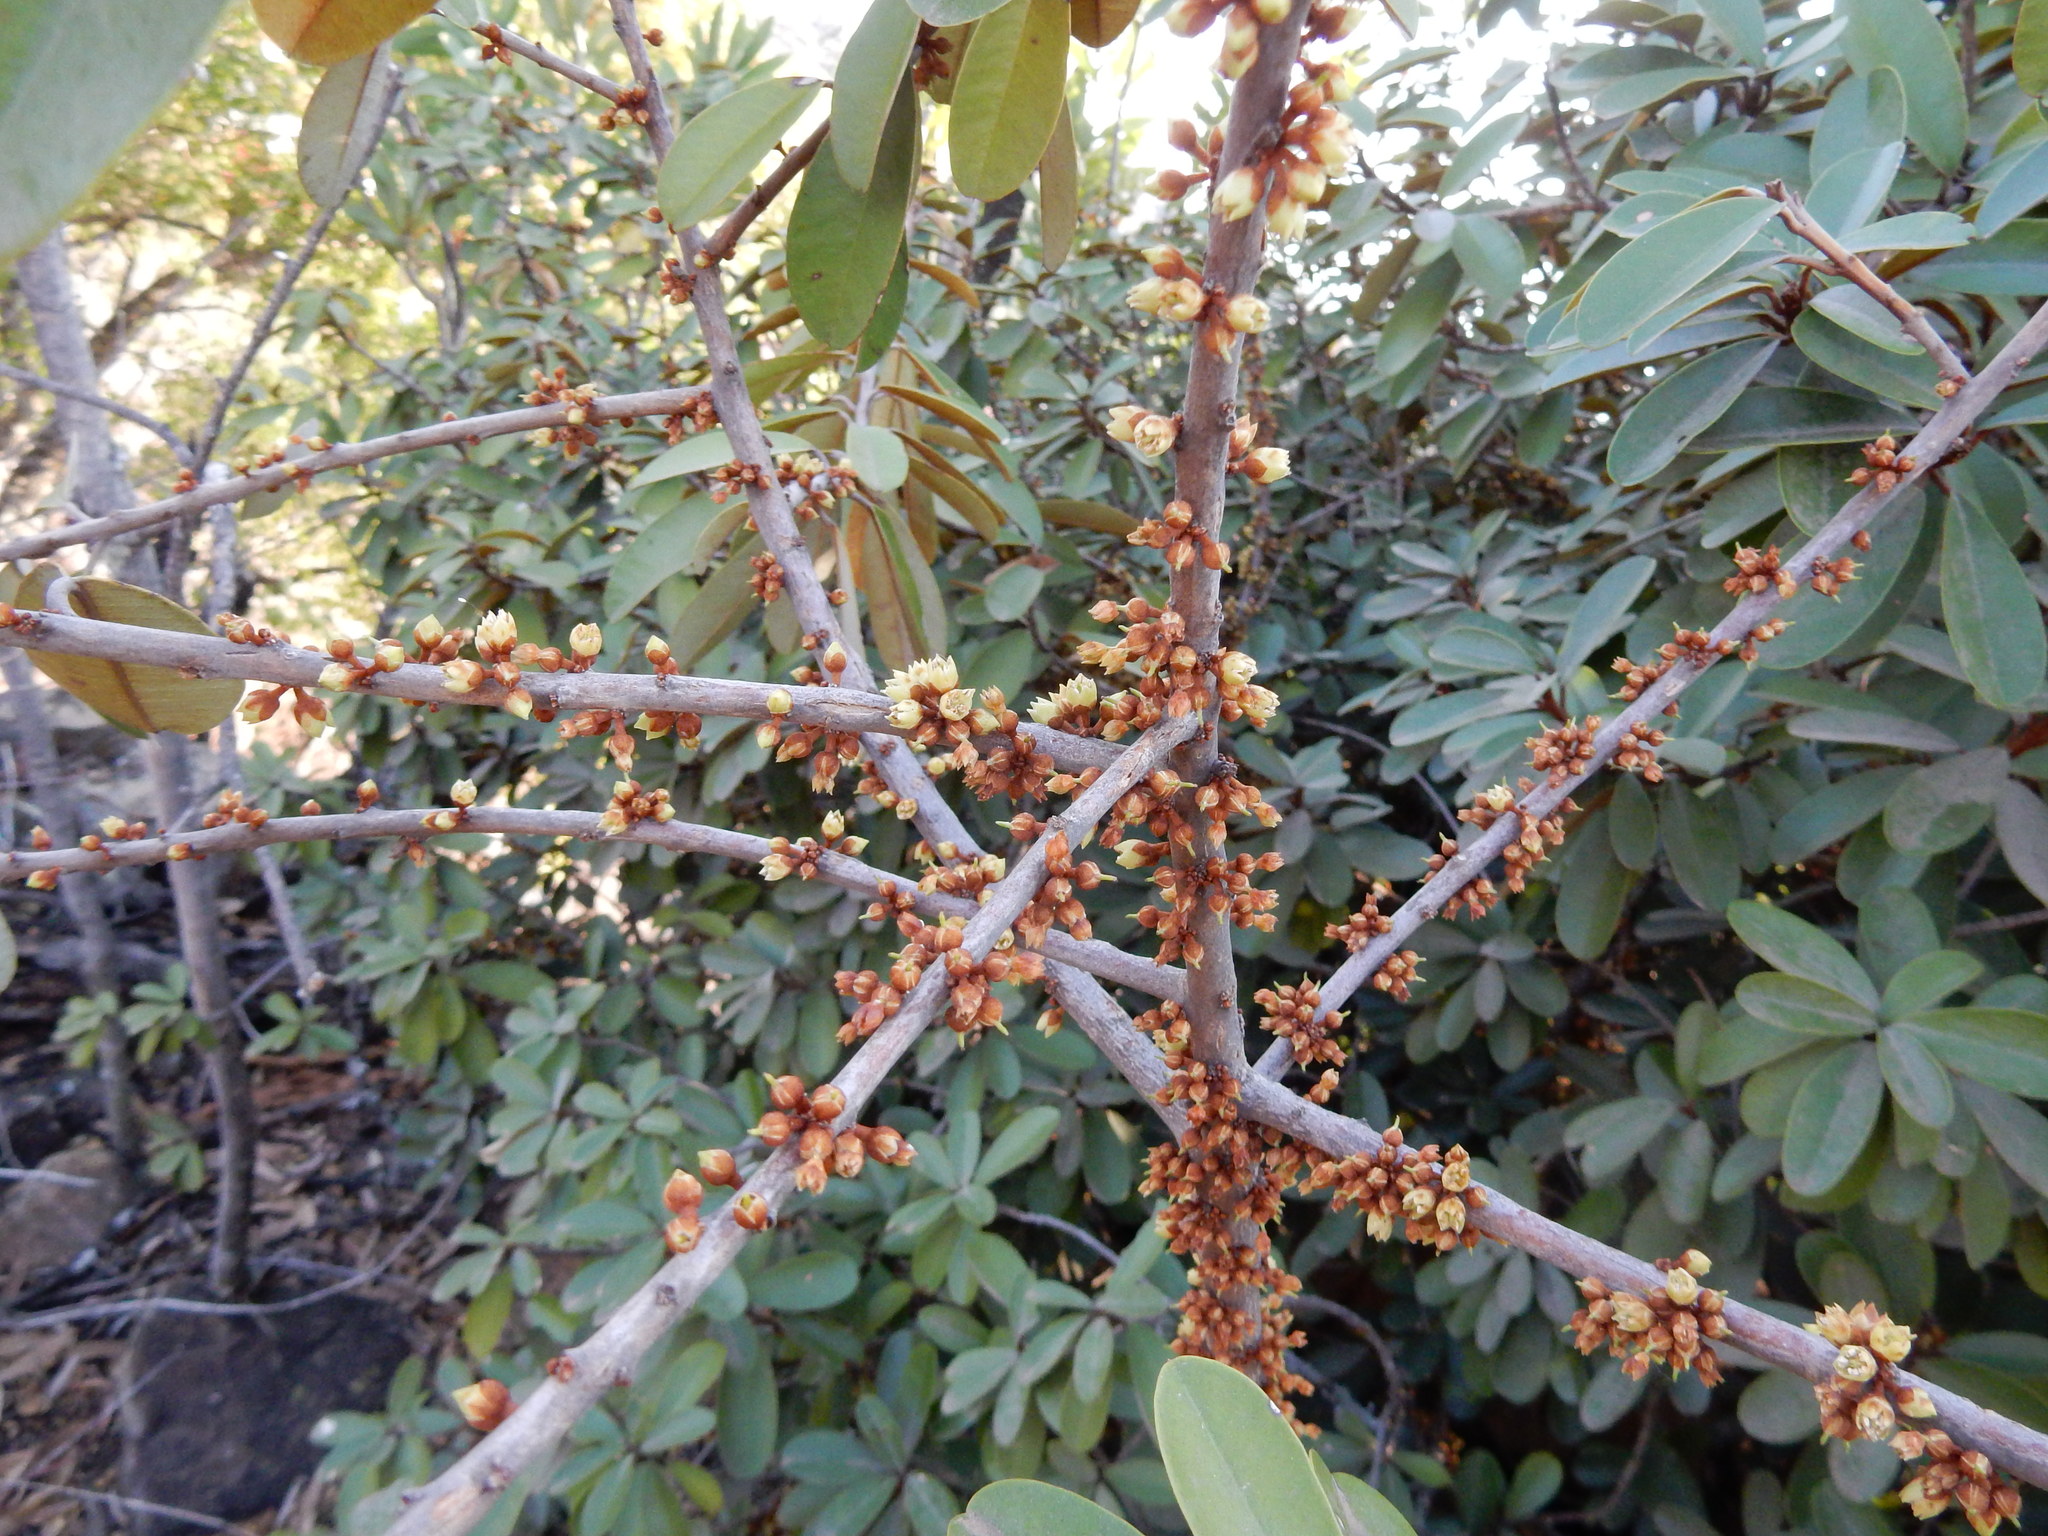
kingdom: Plantae
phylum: Tracheophyta
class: Magnoliopsida
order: Ericales
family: Sapotaceae
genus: Englerophytum
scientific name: Englerophytum magalismontanum
